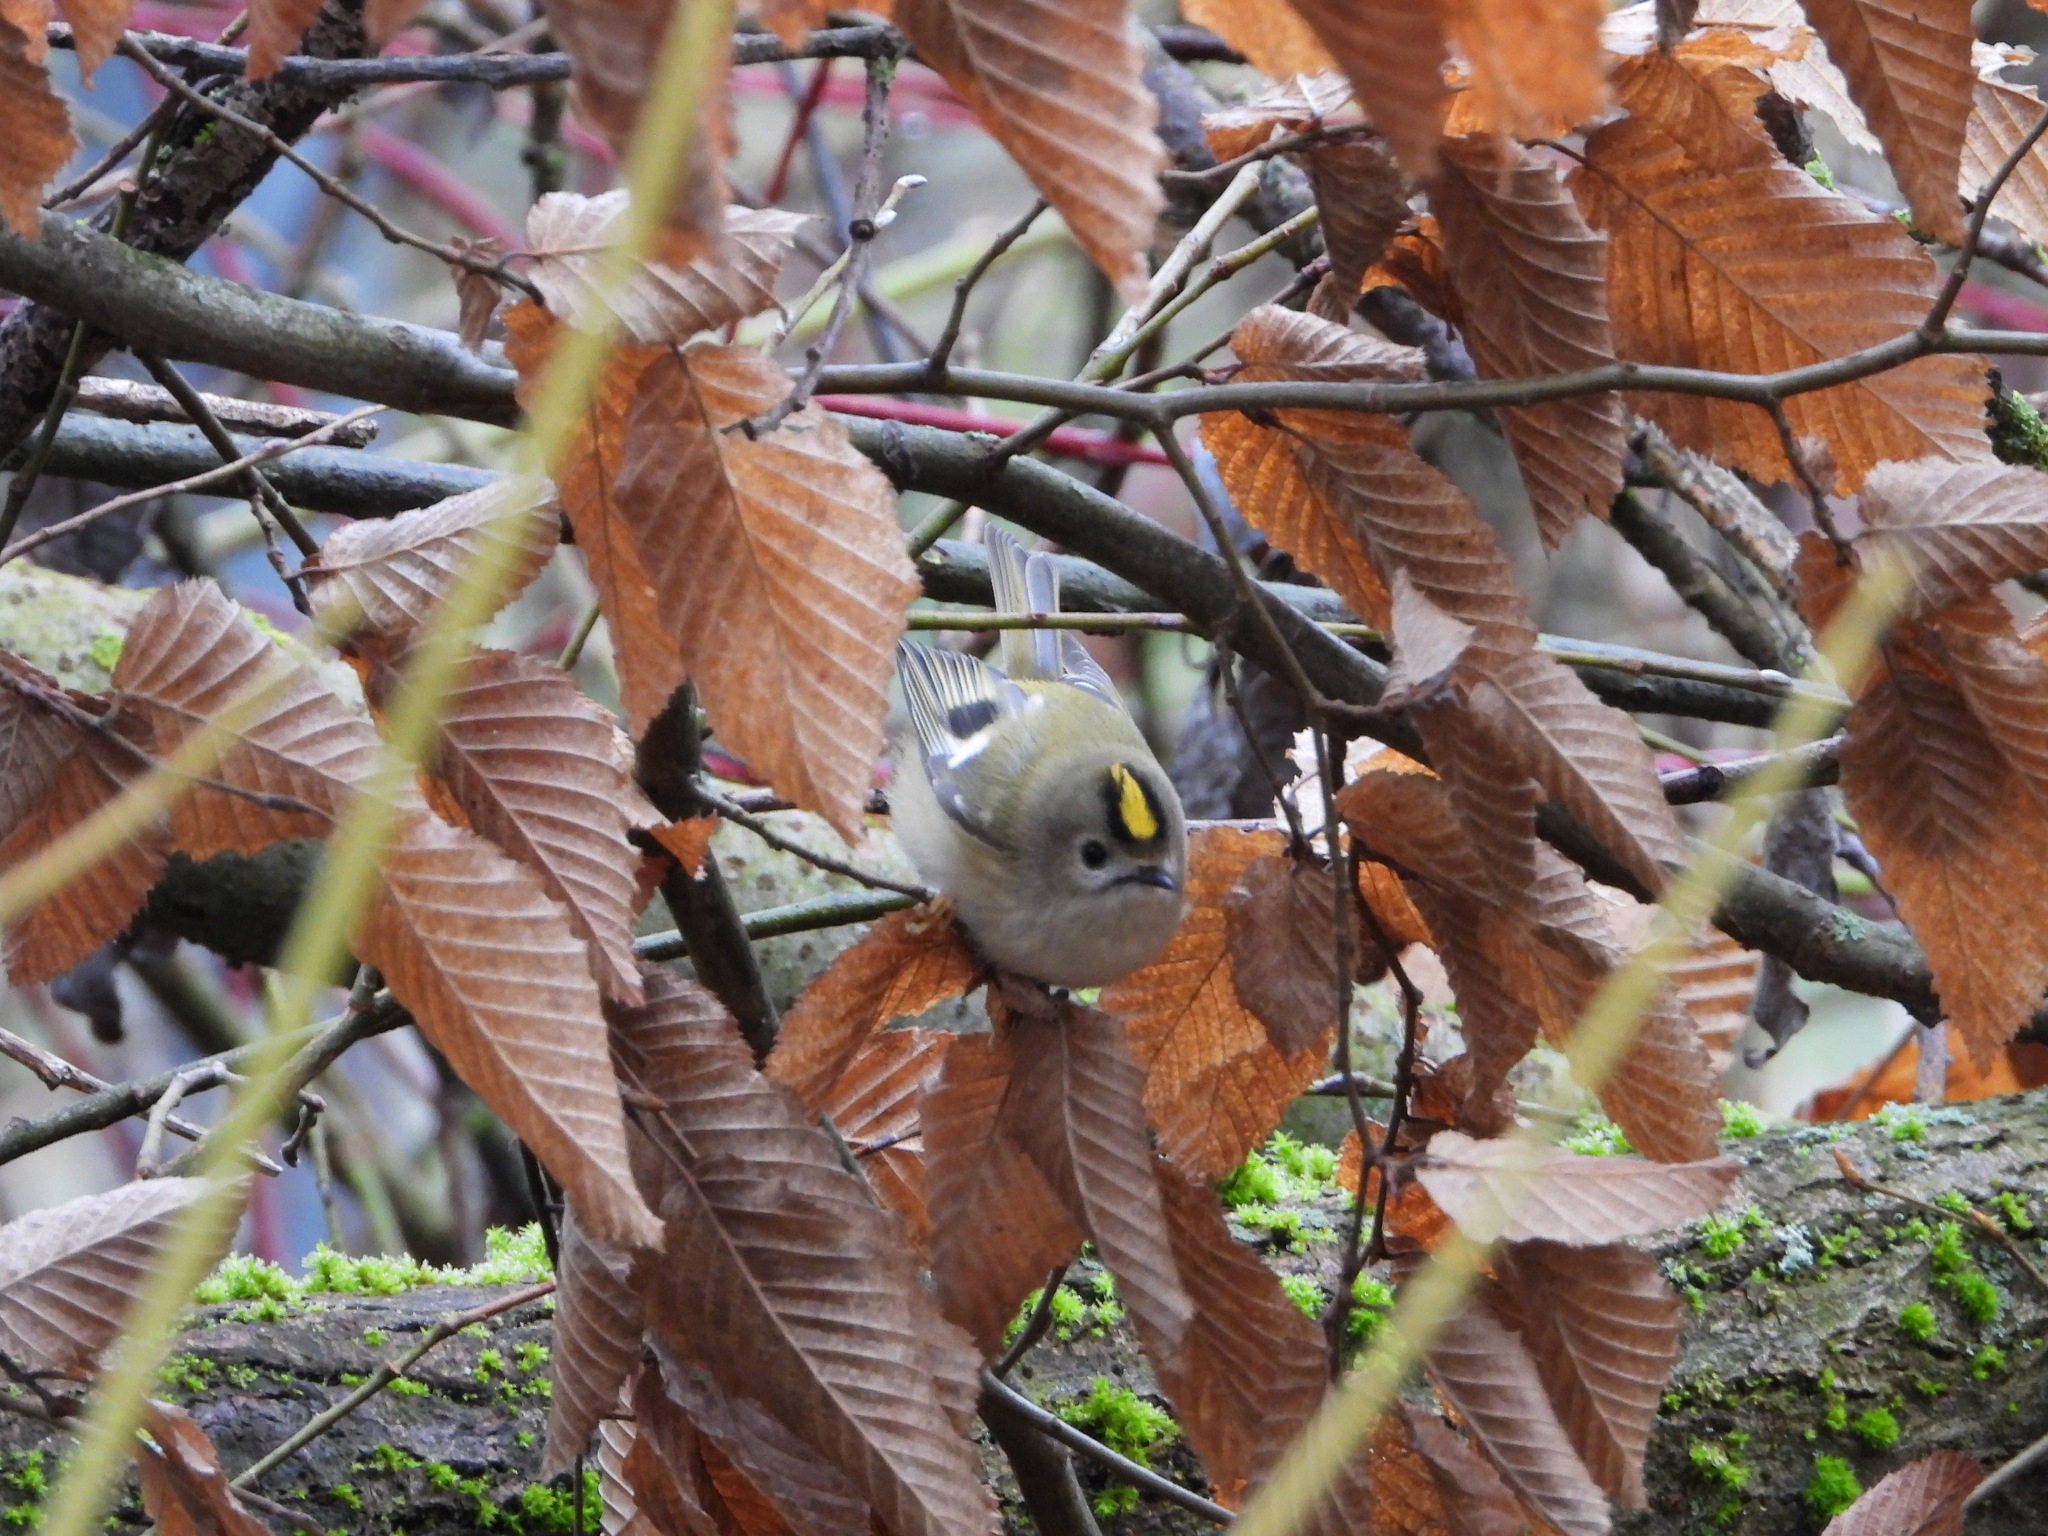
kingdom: Animalia
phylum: Chordata
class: Aves
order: Passeriformes
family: Regulidae
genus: Regulus
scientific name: Regulus regulus
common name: Goldcrest
